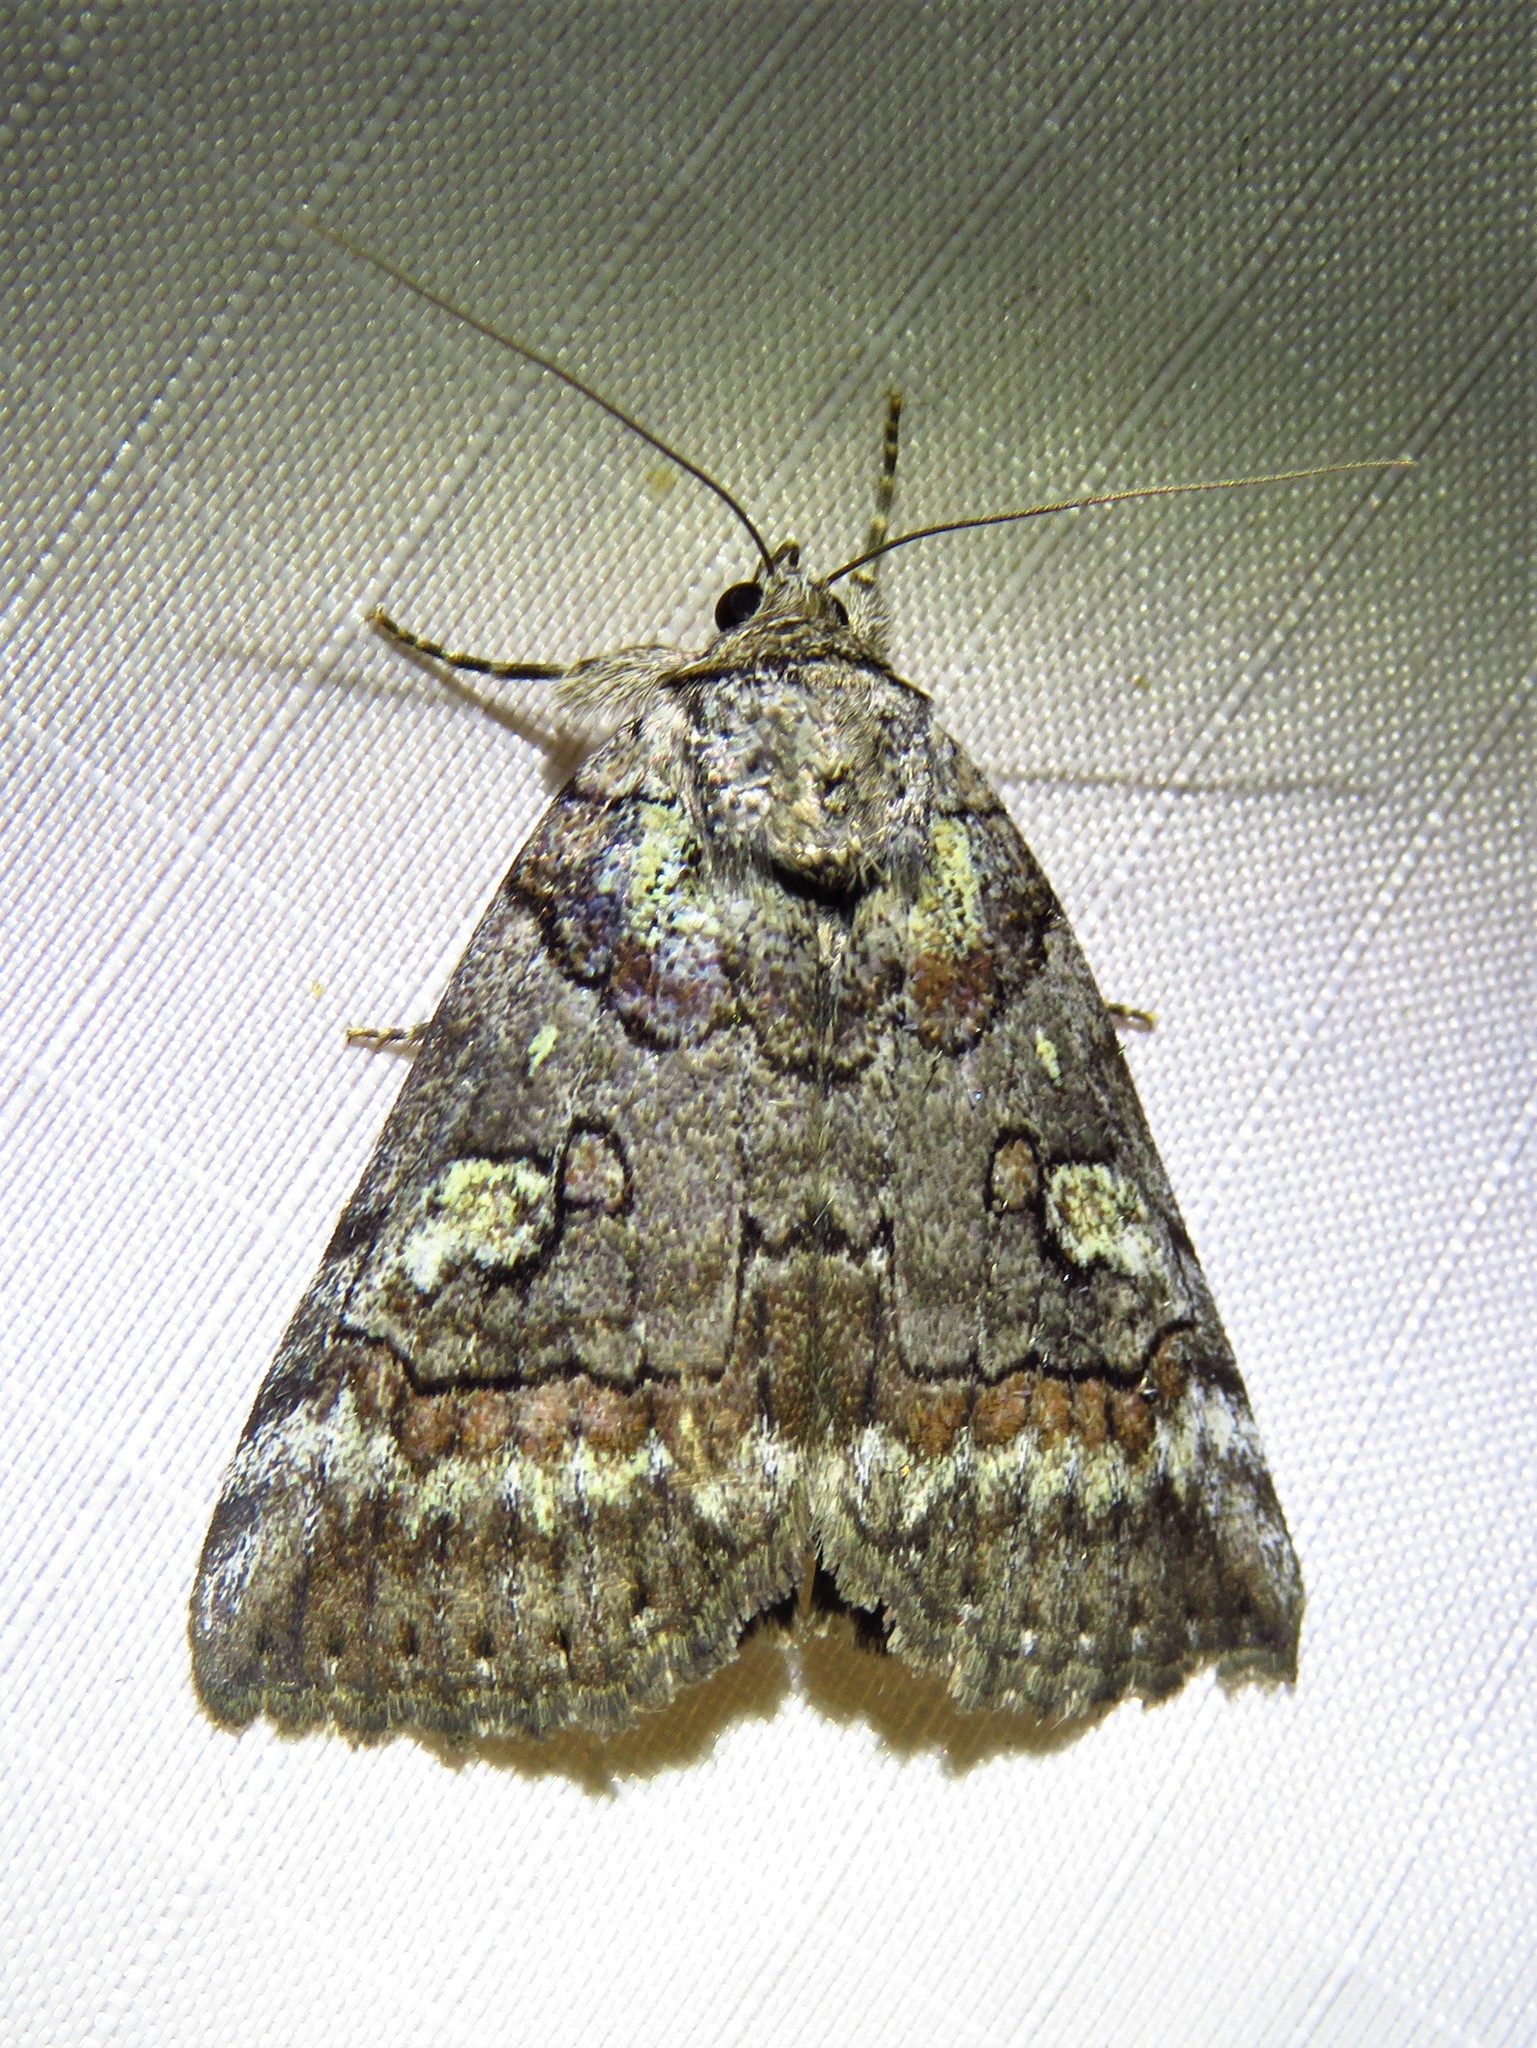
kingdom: Animalia
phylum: Arthropoda
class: Insecta
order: Lepidoptera
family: Erebidae
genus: Catocala
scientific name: Catocala similis
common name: Similar underwing
